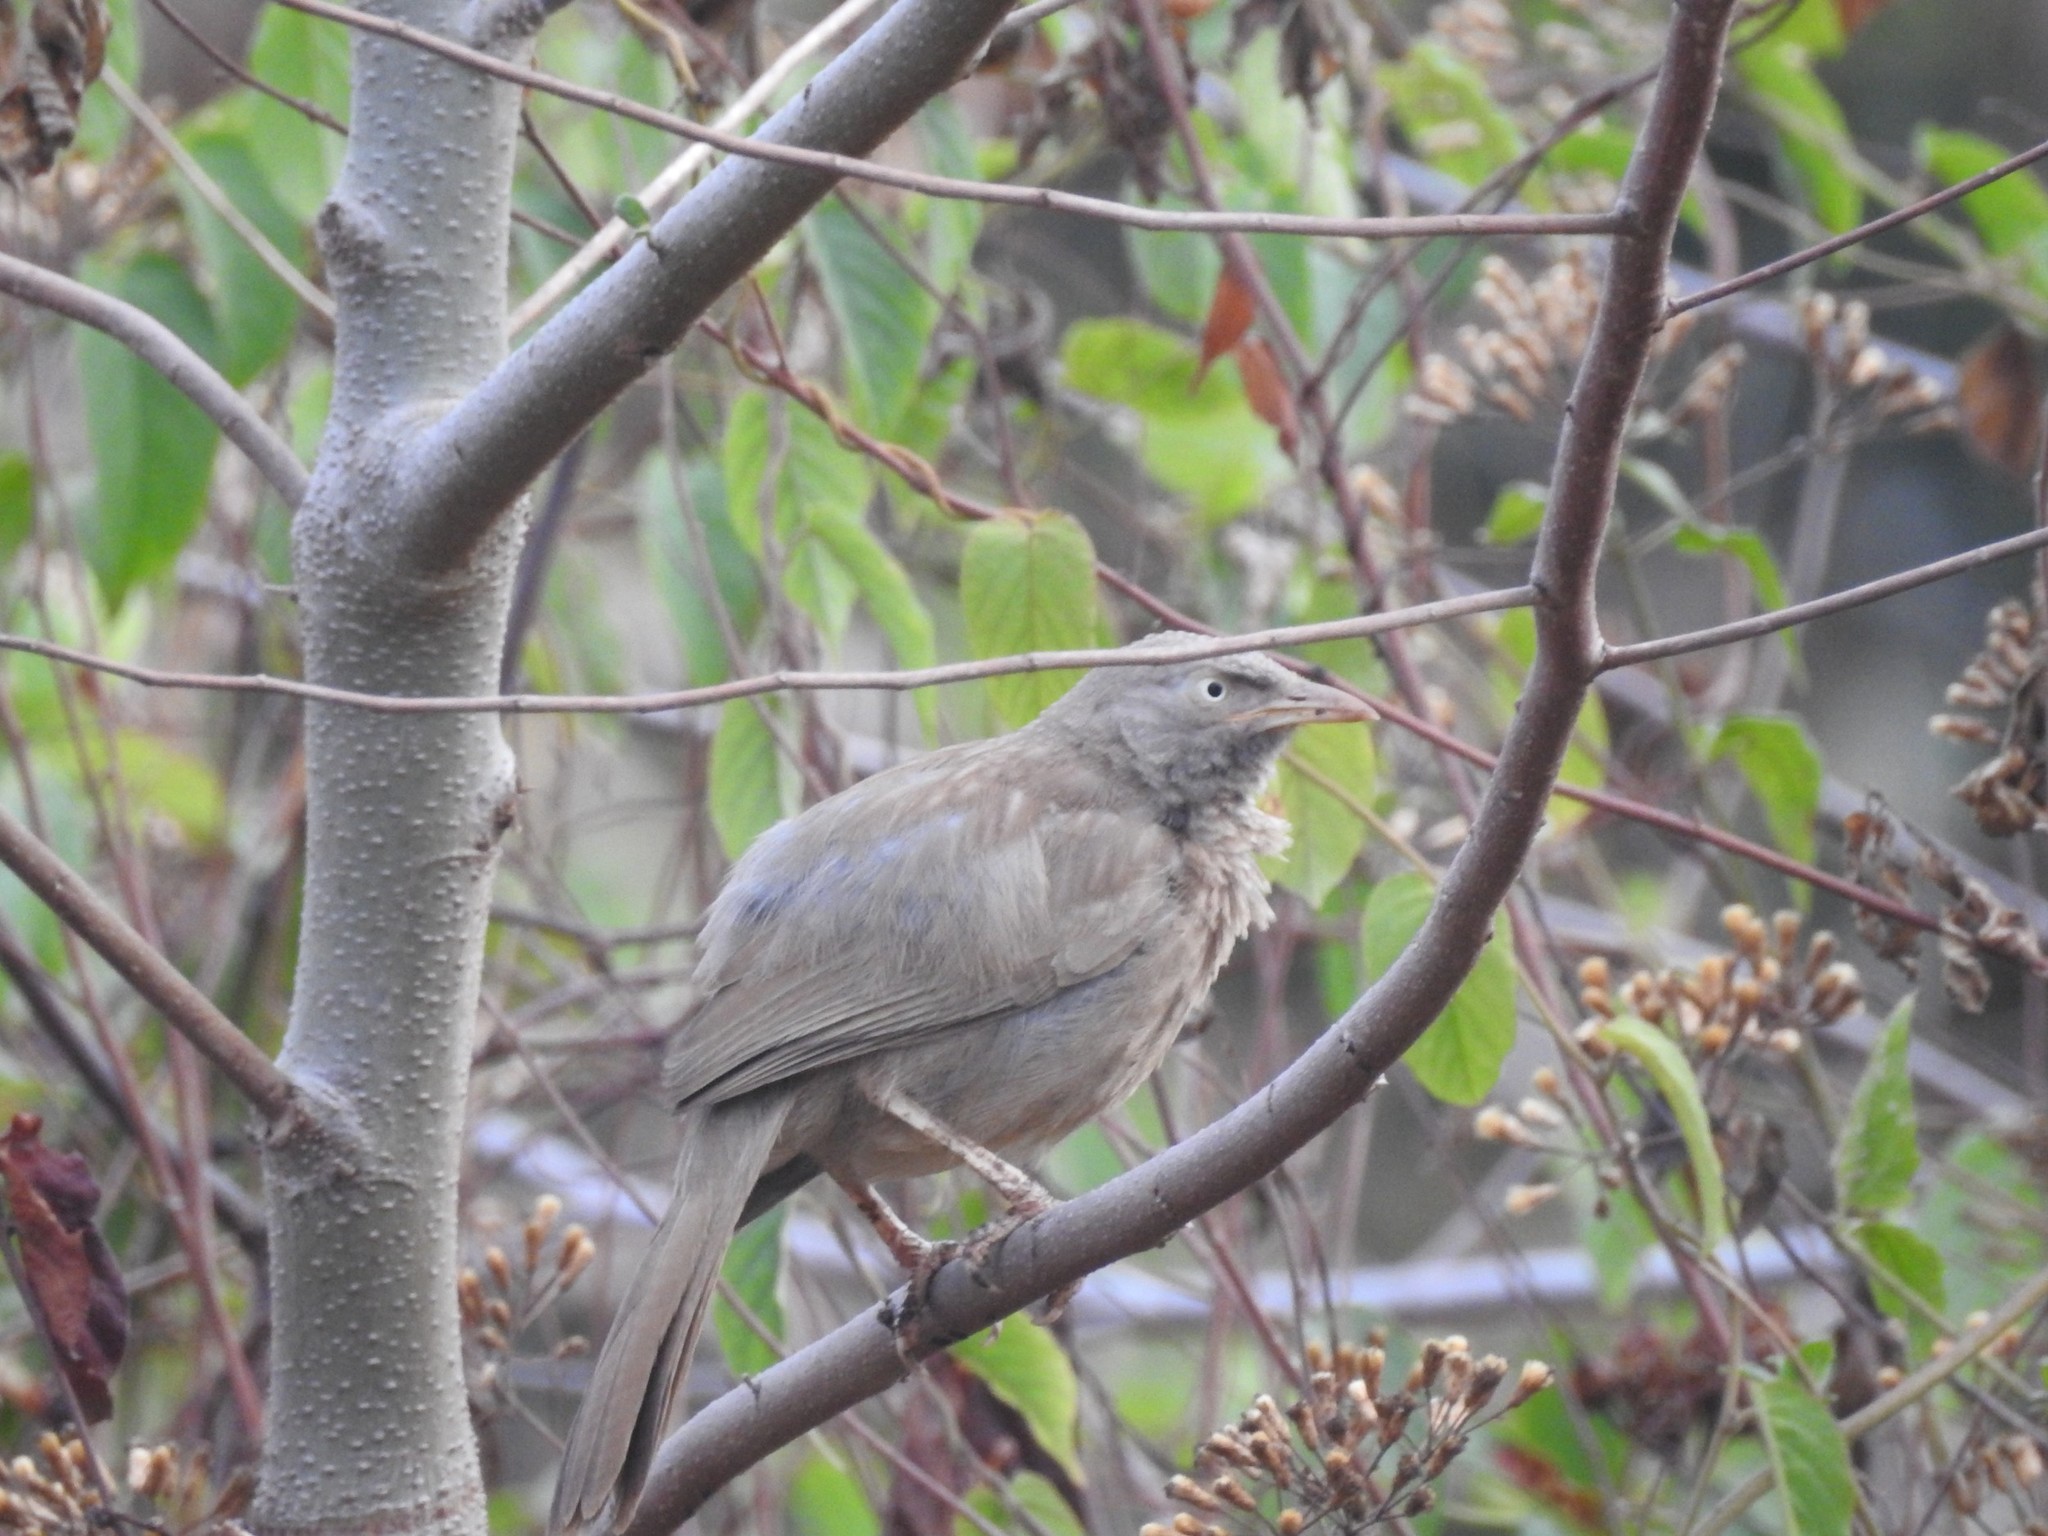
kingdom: Animalia
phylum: Chordata
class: Aves
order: Passeriformes
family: Leiothrichidae
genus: Turdoides
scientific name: Turdoides striata
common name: Jungle babbler
